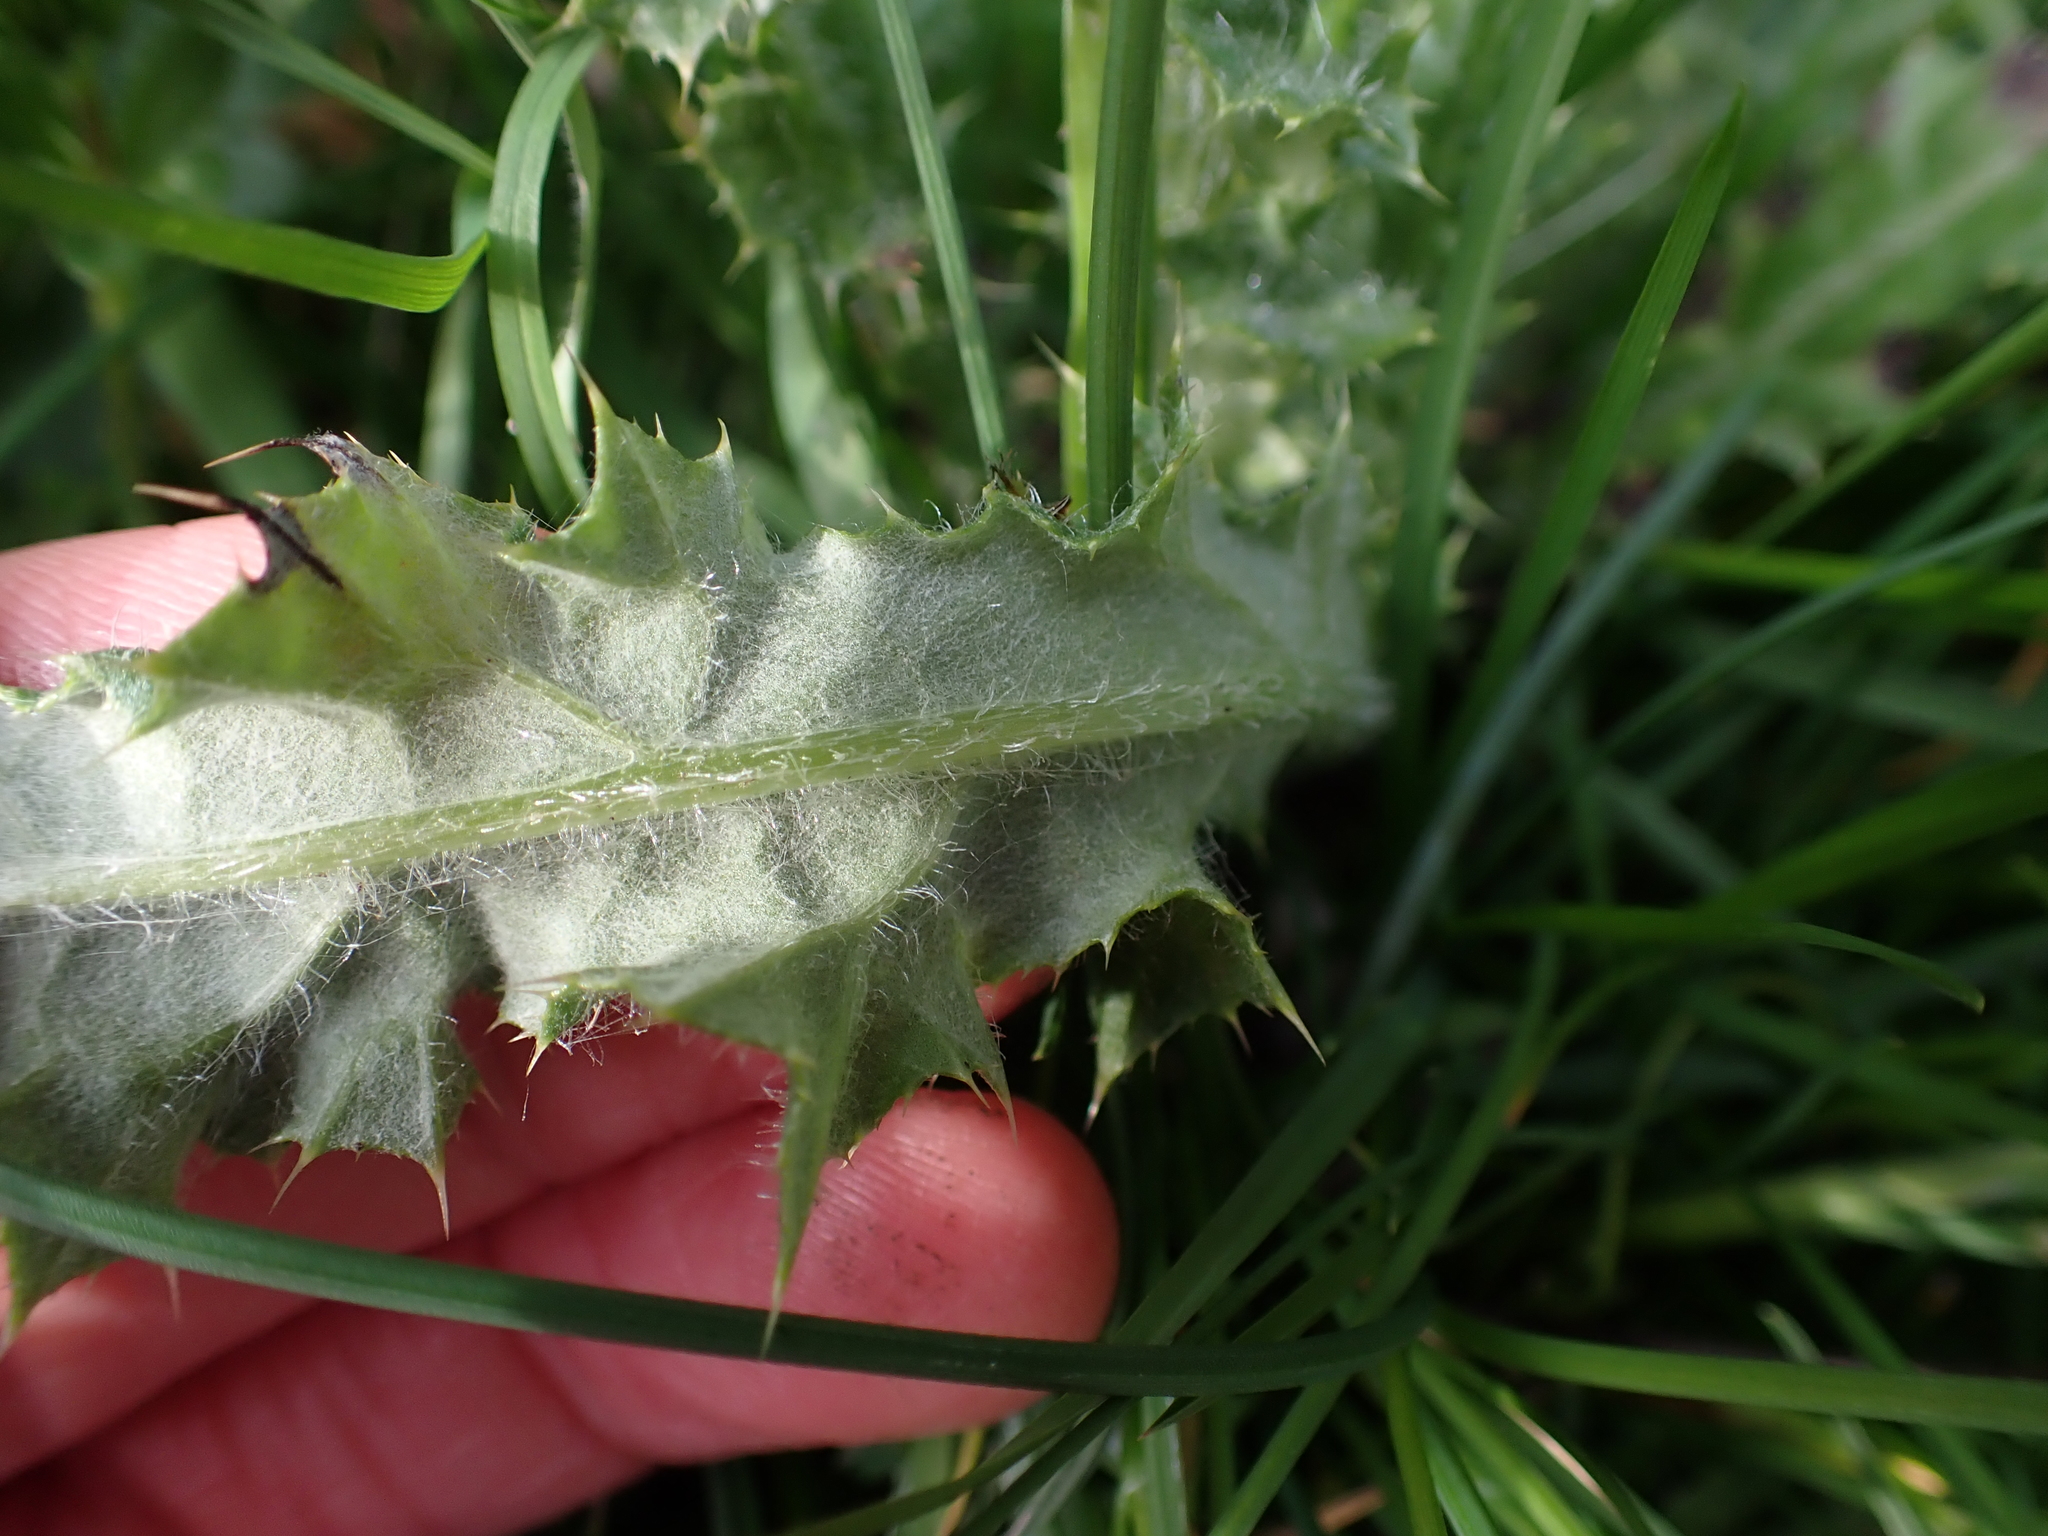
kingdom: Plantae
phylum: Tracheophyta
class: Magnoliopsida
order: Asterales
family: Asteraceae
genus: Cirsium
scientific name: Cirsium arvense
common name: Creeping thistle
